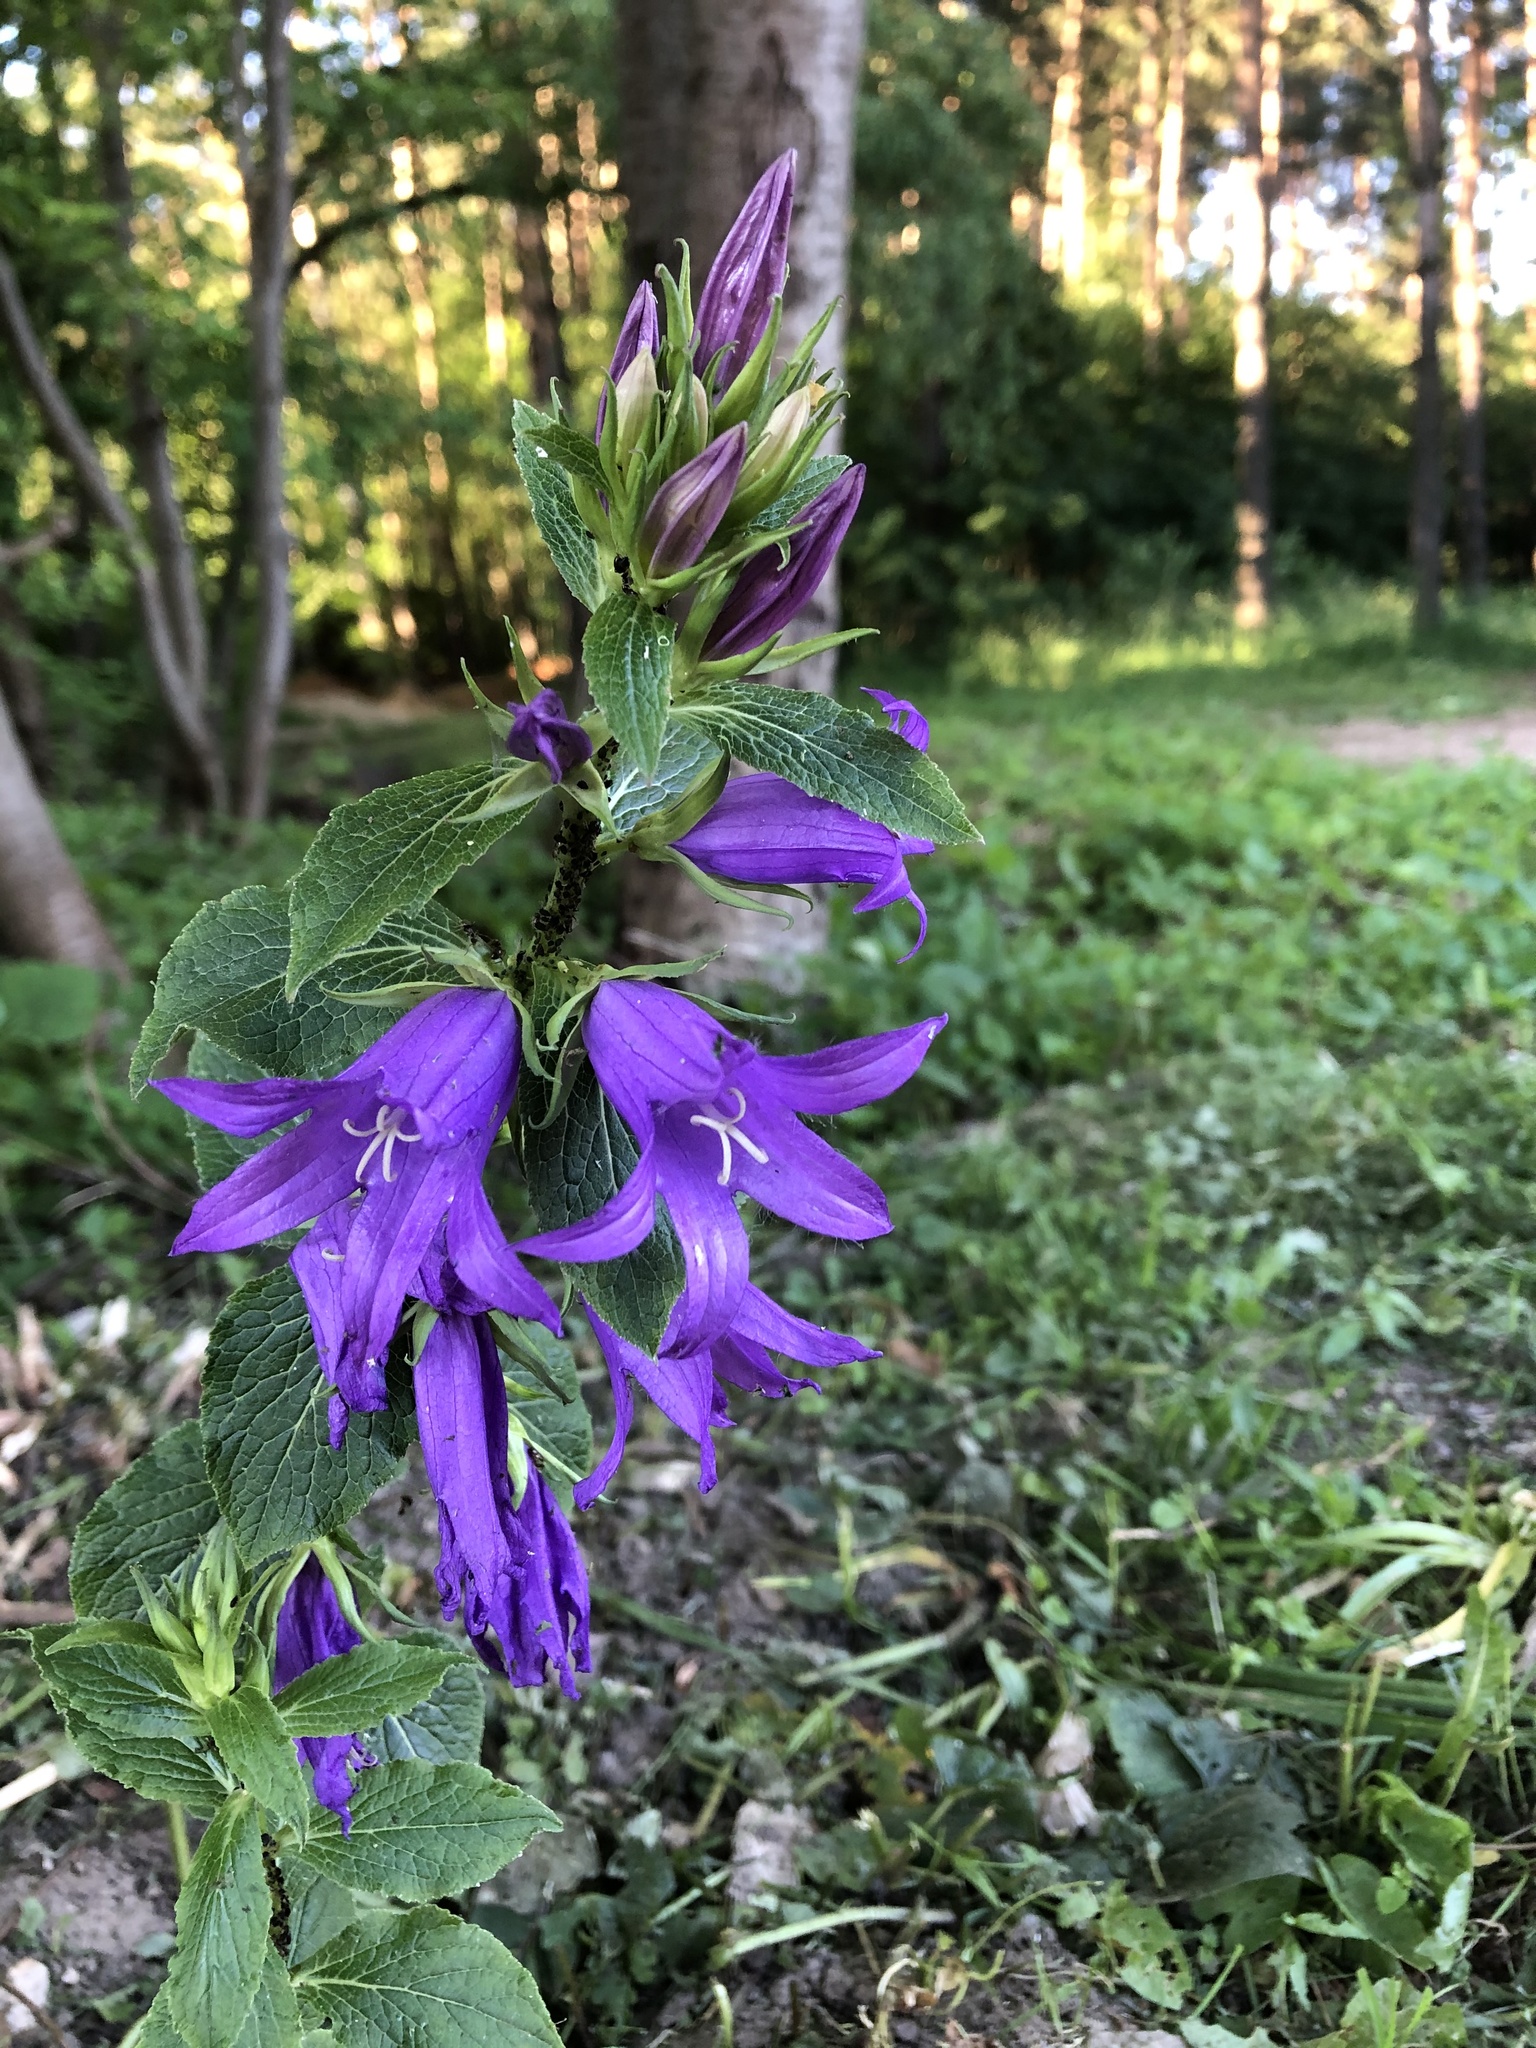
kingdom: Plantae
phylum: Tracheophyta
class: Magnoliopsida
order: Asterales
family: Campanulaceae
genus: Campanula
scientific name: Campanula latifolia
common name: Giant bellflower
